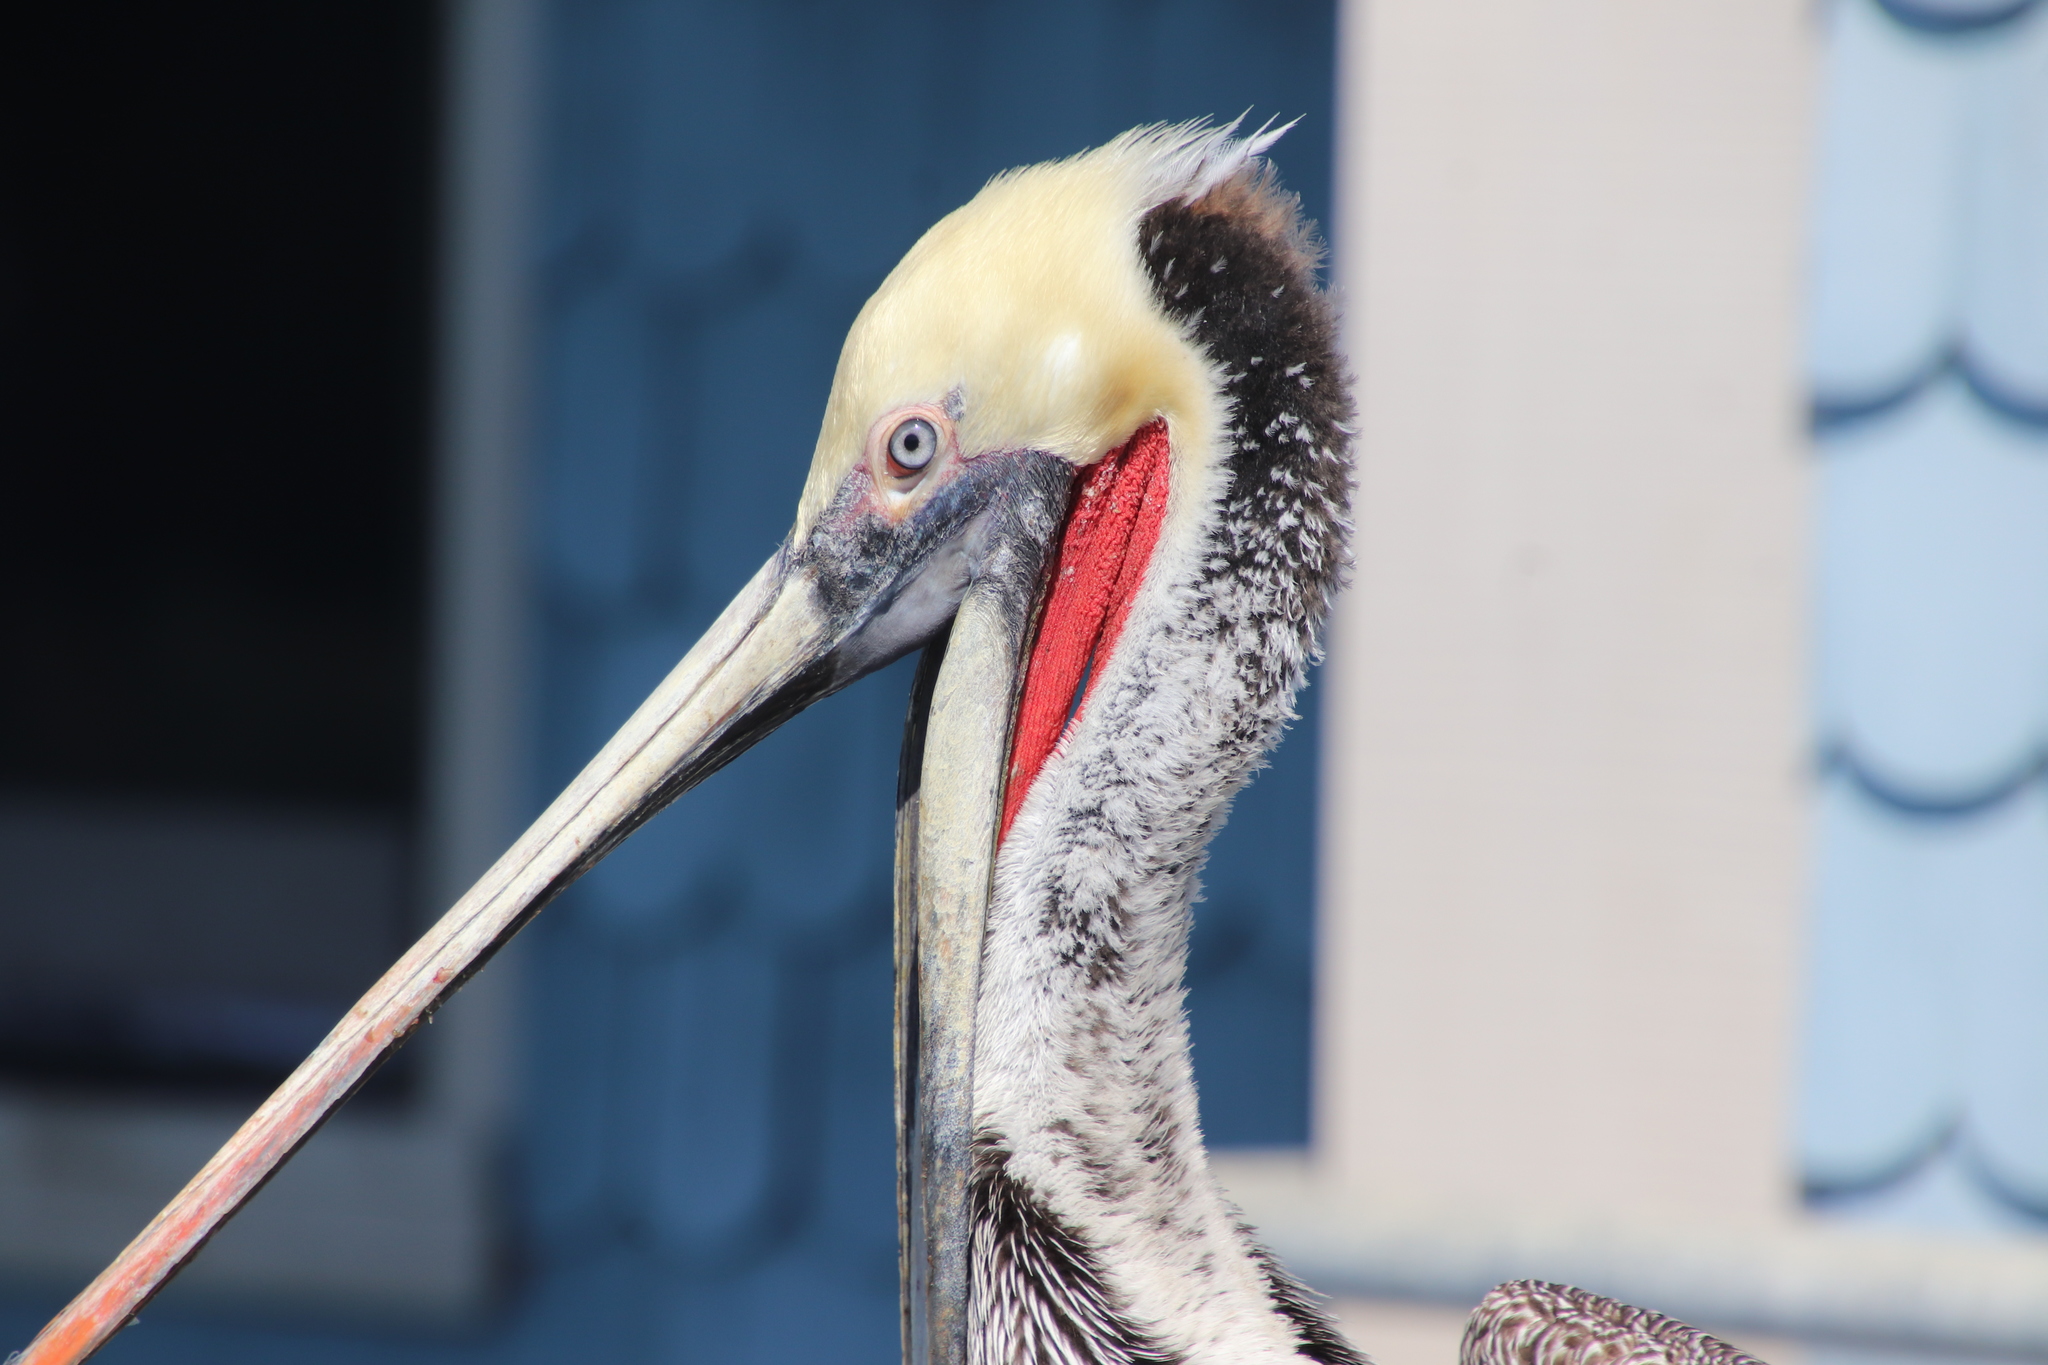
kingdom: Animalia
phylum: Chordata
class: Aves
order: Pelecaniformes
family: Pelecanidae
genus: Pelecanus
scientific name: Pelecanus occidentalis
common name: Brown pelican
